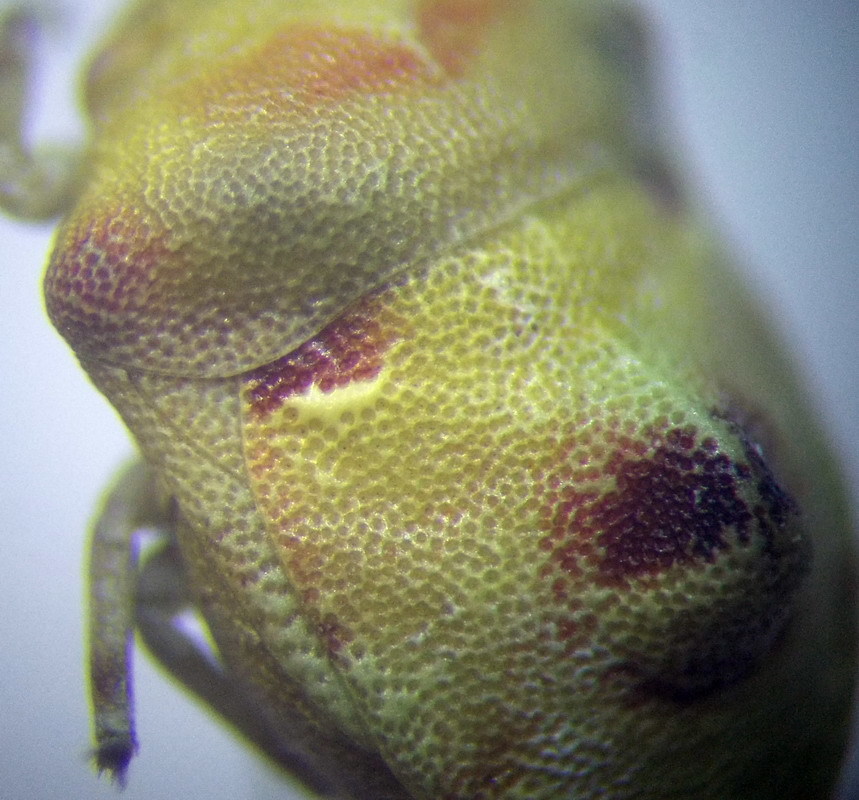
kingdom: Animalia
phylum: Arthropoda
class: Insecta
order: Hemiptera
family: Pentatomidae
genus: Tarisa
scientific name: Tarisa salsolae
